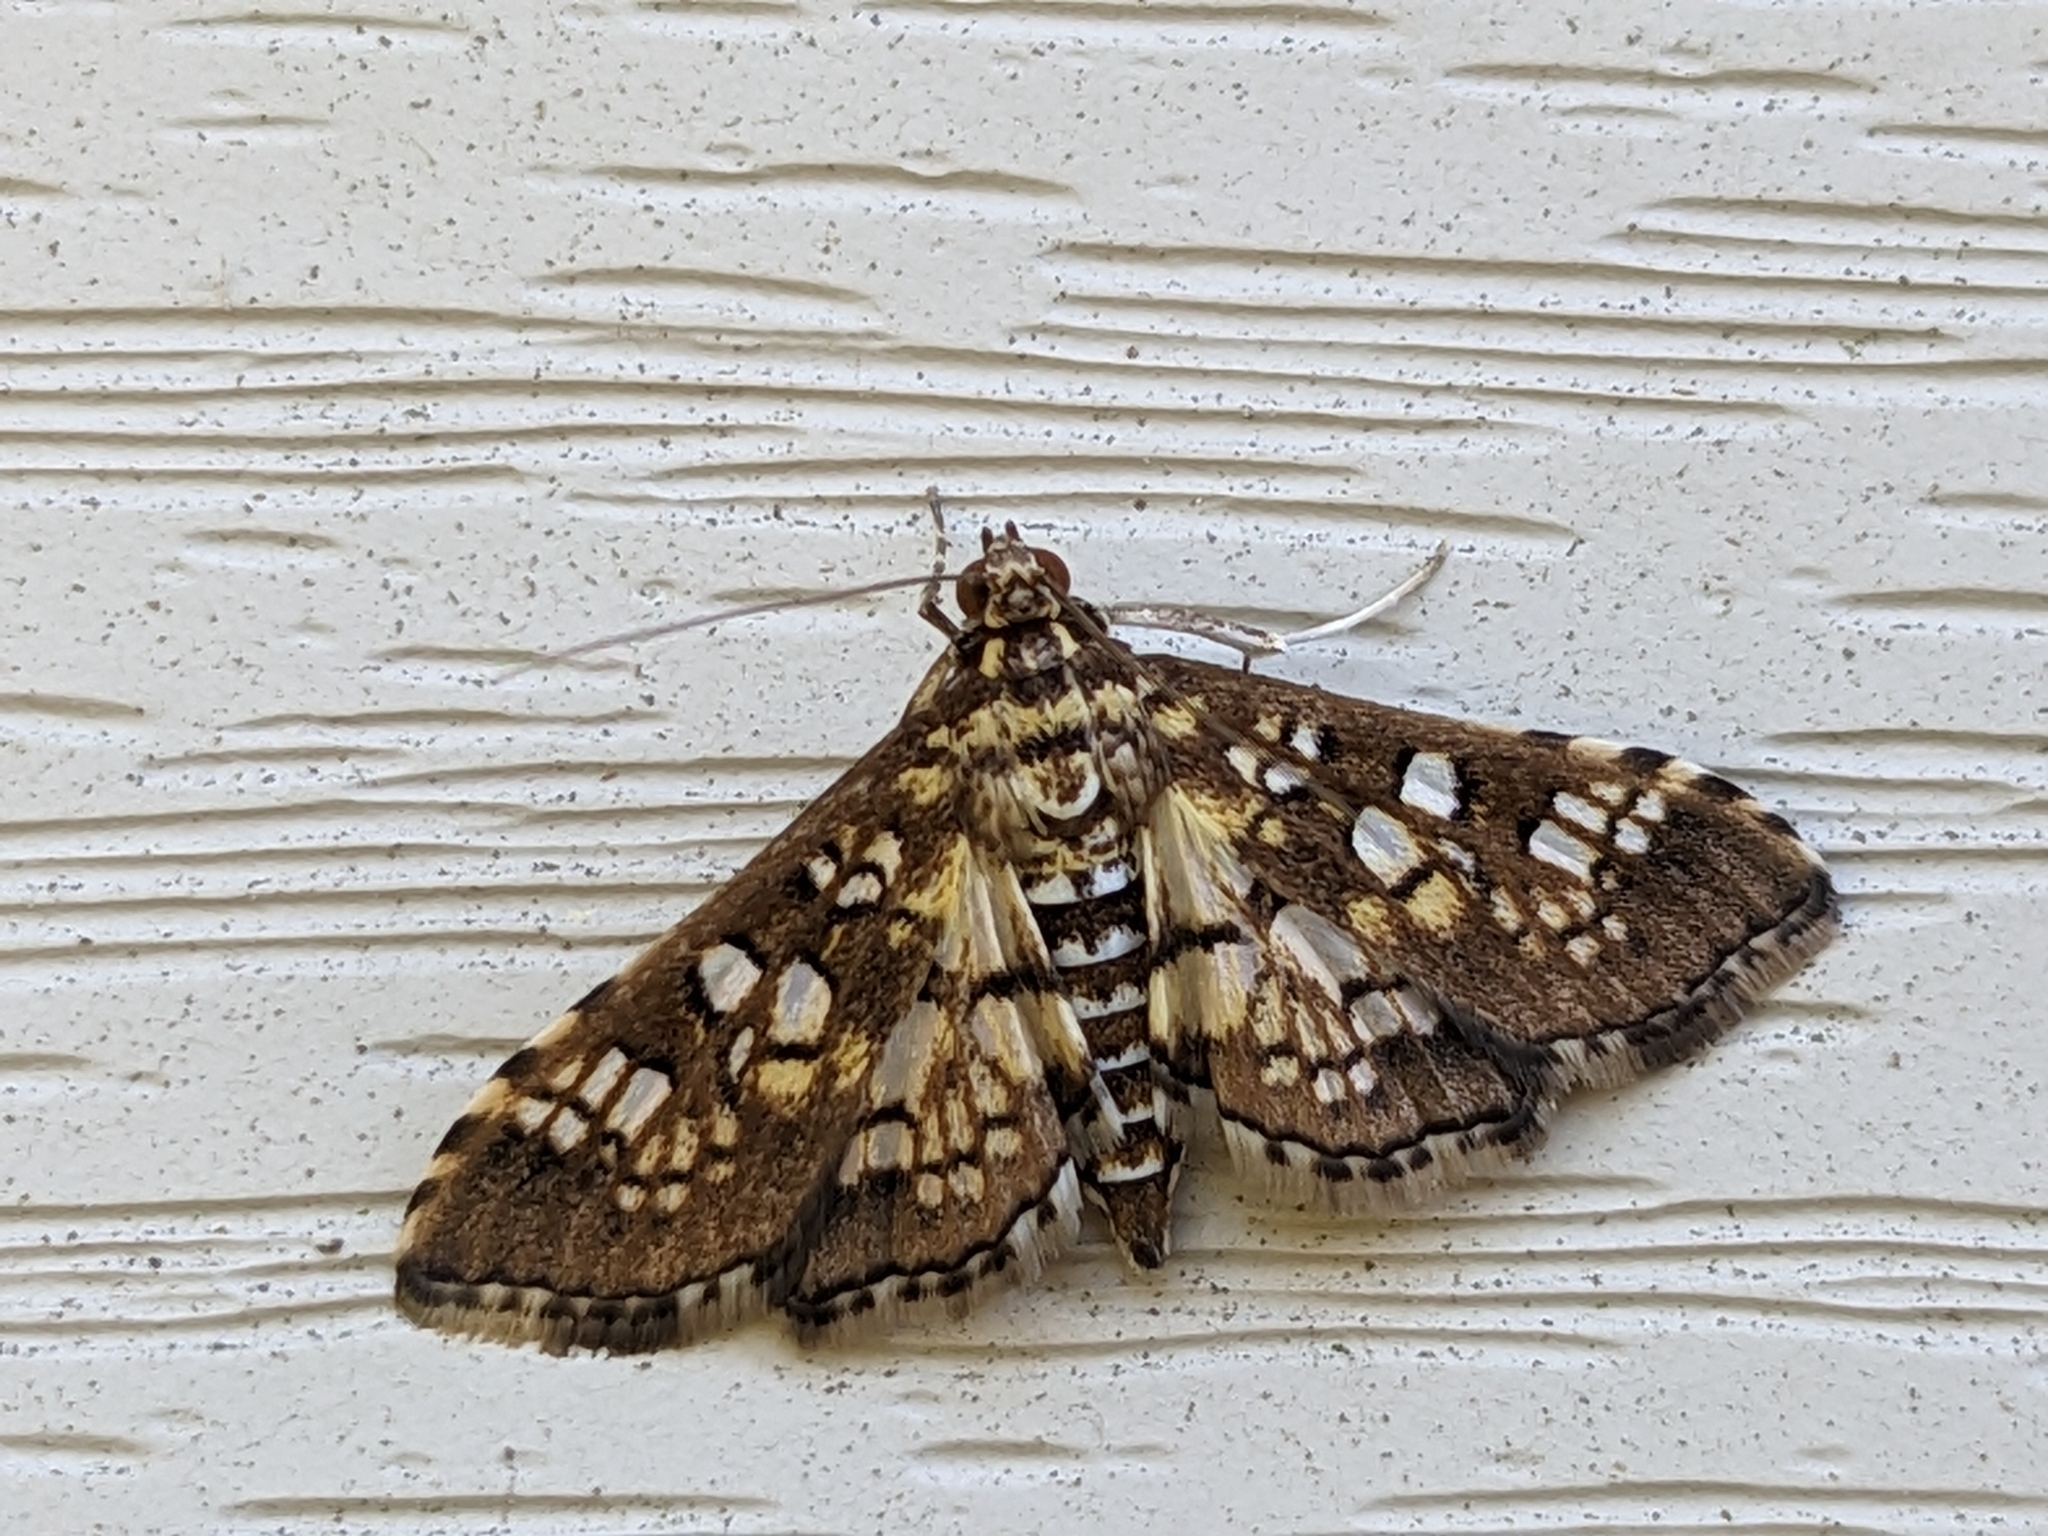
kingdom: Animalia
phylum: Arthropoda
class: Insecta
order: Lepidoptera
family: Crambidae
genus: Samea
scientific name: Samea ecclesialis
